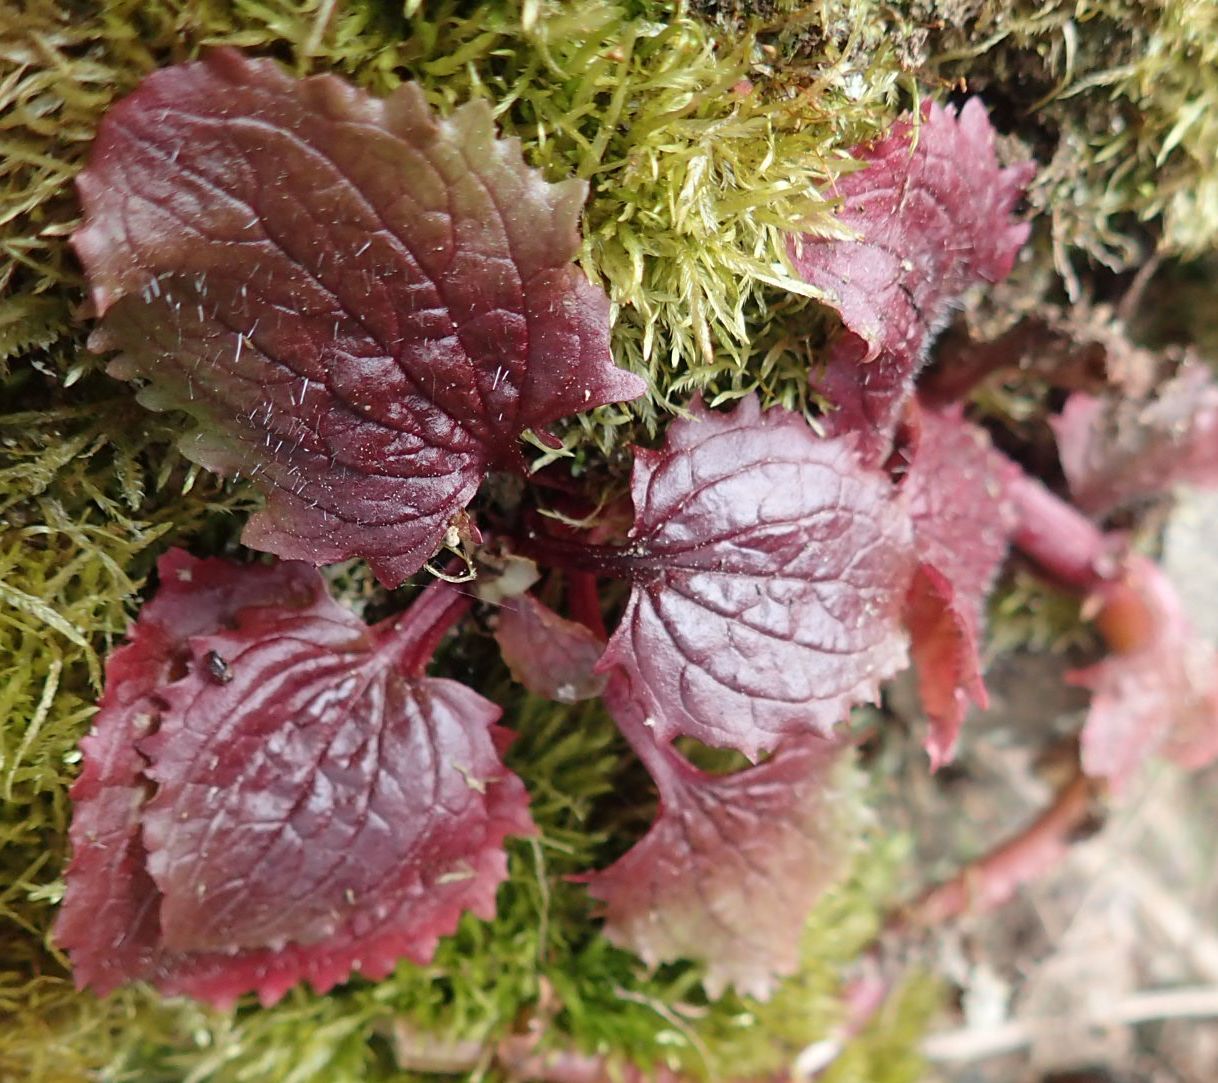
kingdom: Plantae
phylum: Tracheophyta
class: Magnoliopsida
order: Lamiales
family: Phrymaceae
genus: Erythranthe
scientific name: Erythranthe guttata
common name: Monkeyflower
